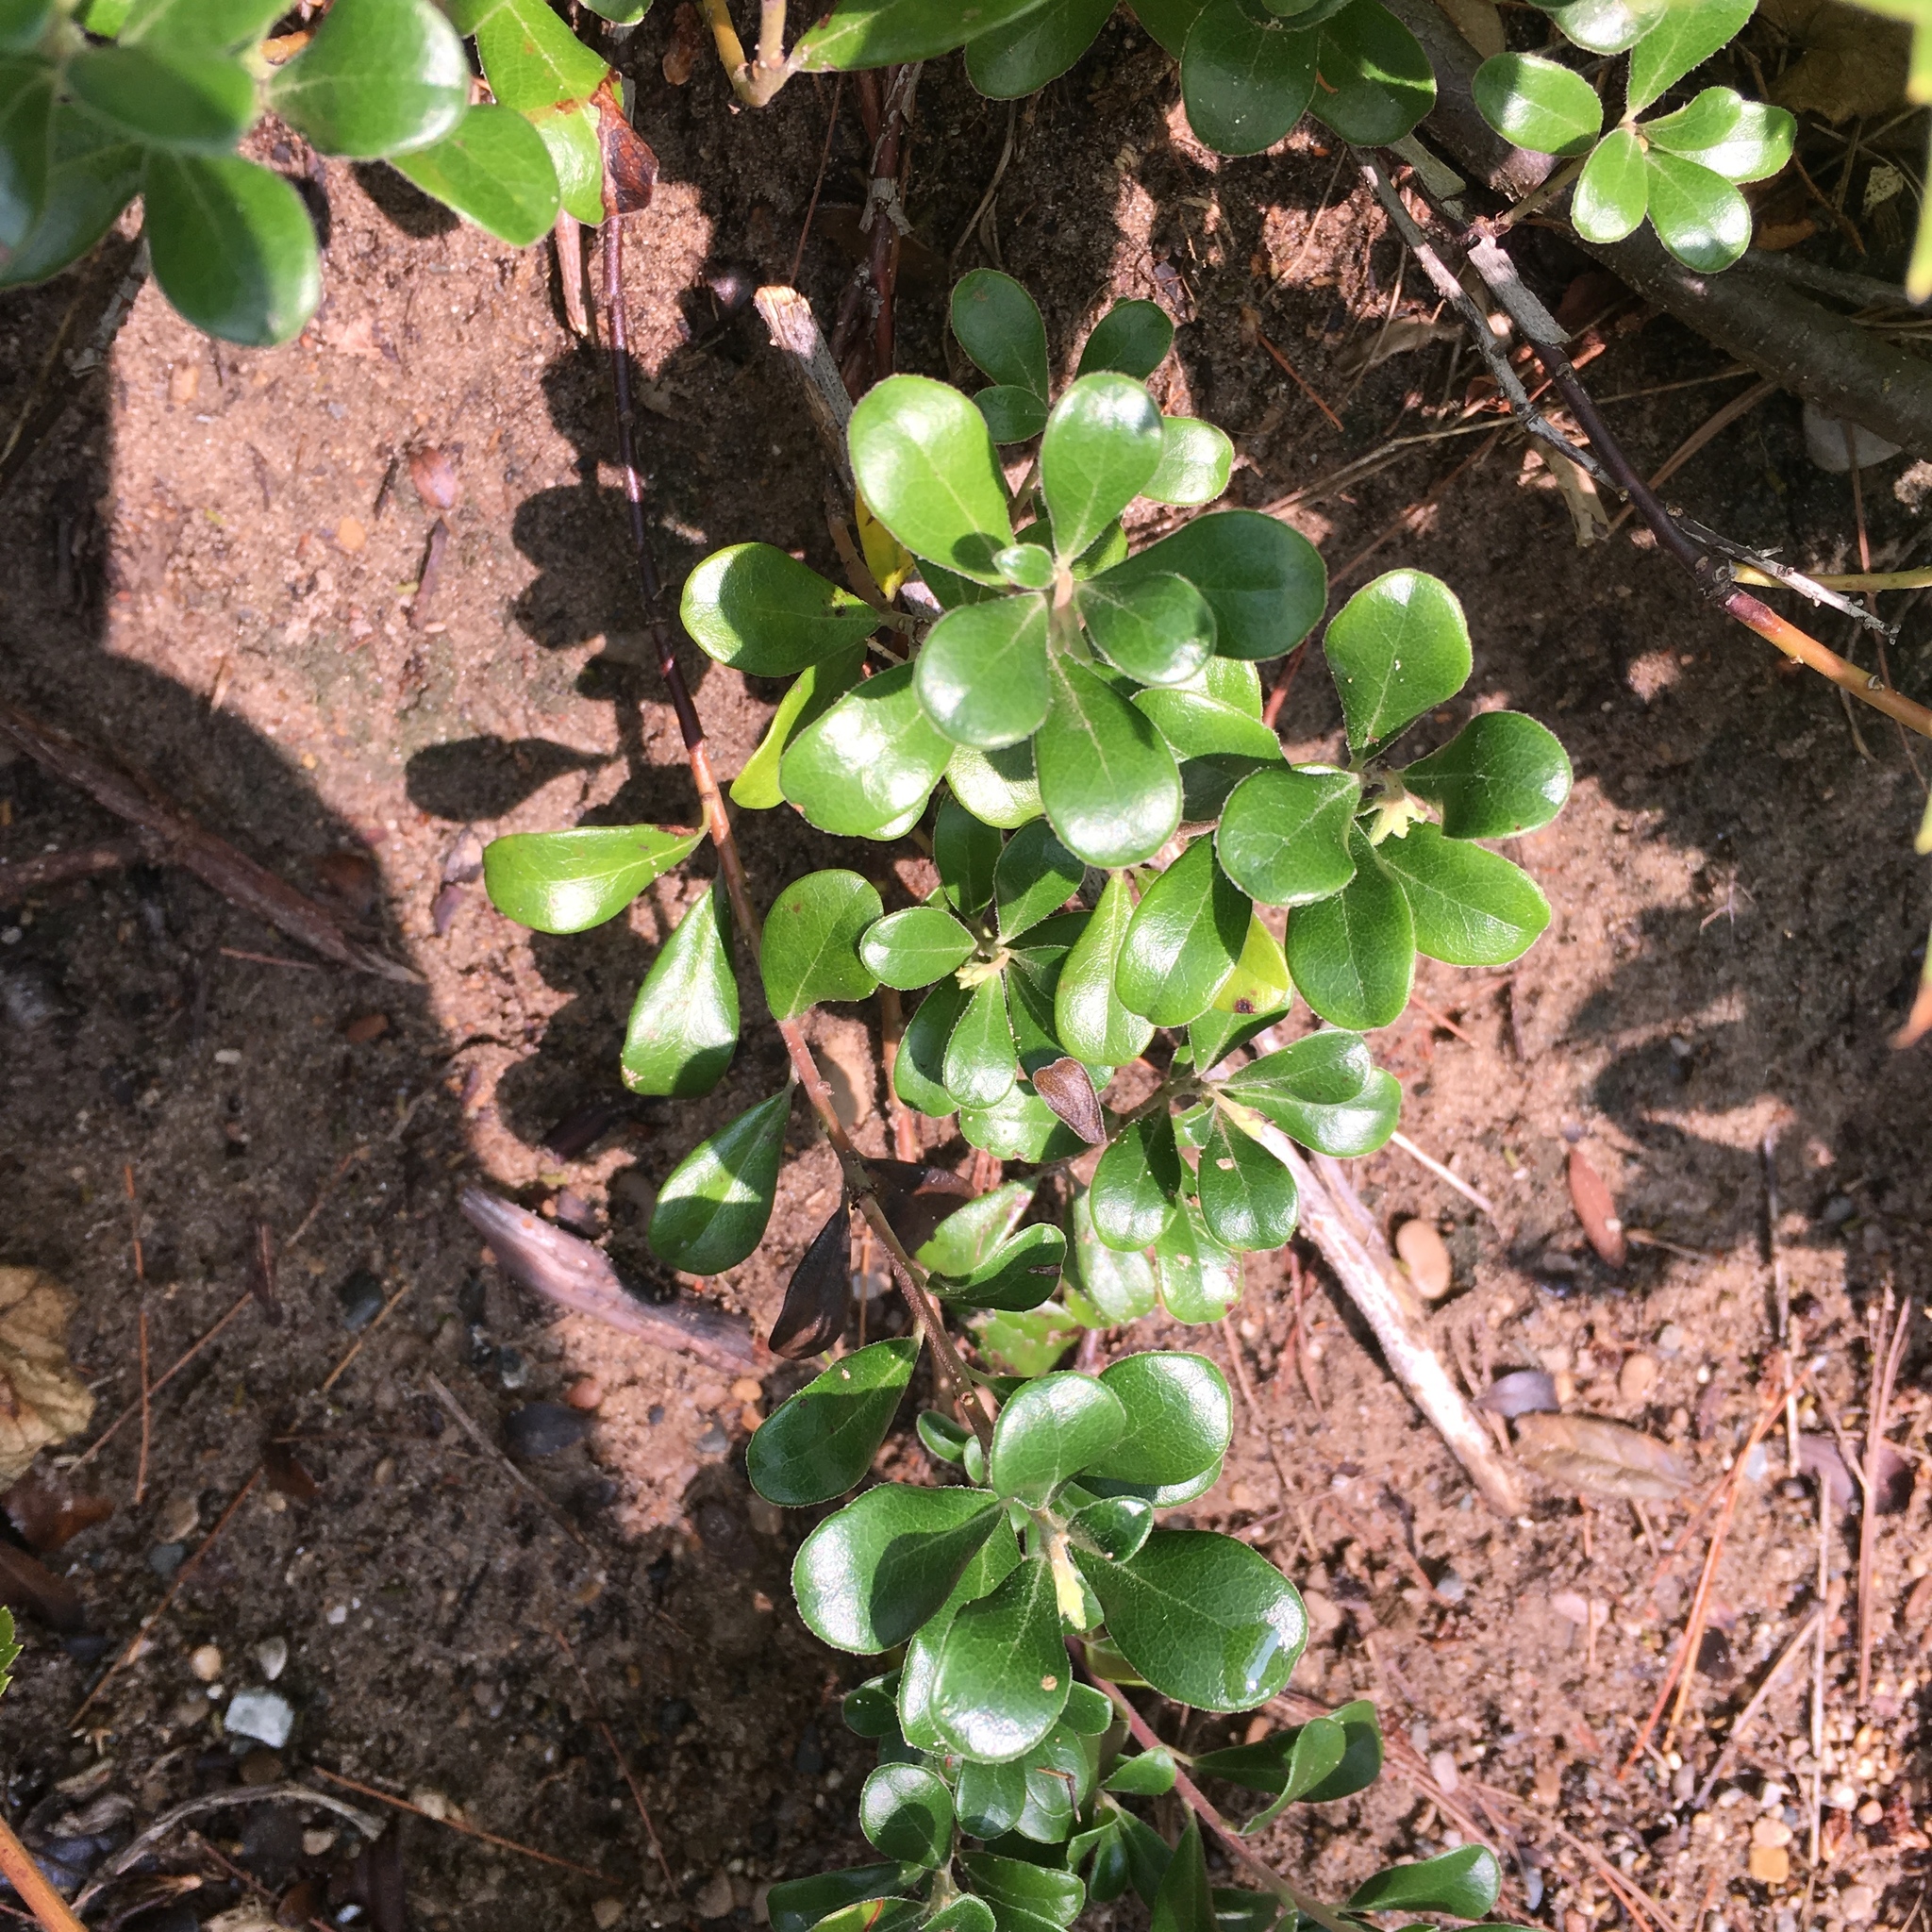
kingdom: Plantae
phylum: Tracheophyta
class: Magnoliopsida
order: Ericales
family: Ericaceae
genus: Arctostaphylos
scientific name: Arctostaphylos uva-ursi
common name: Bearberry
